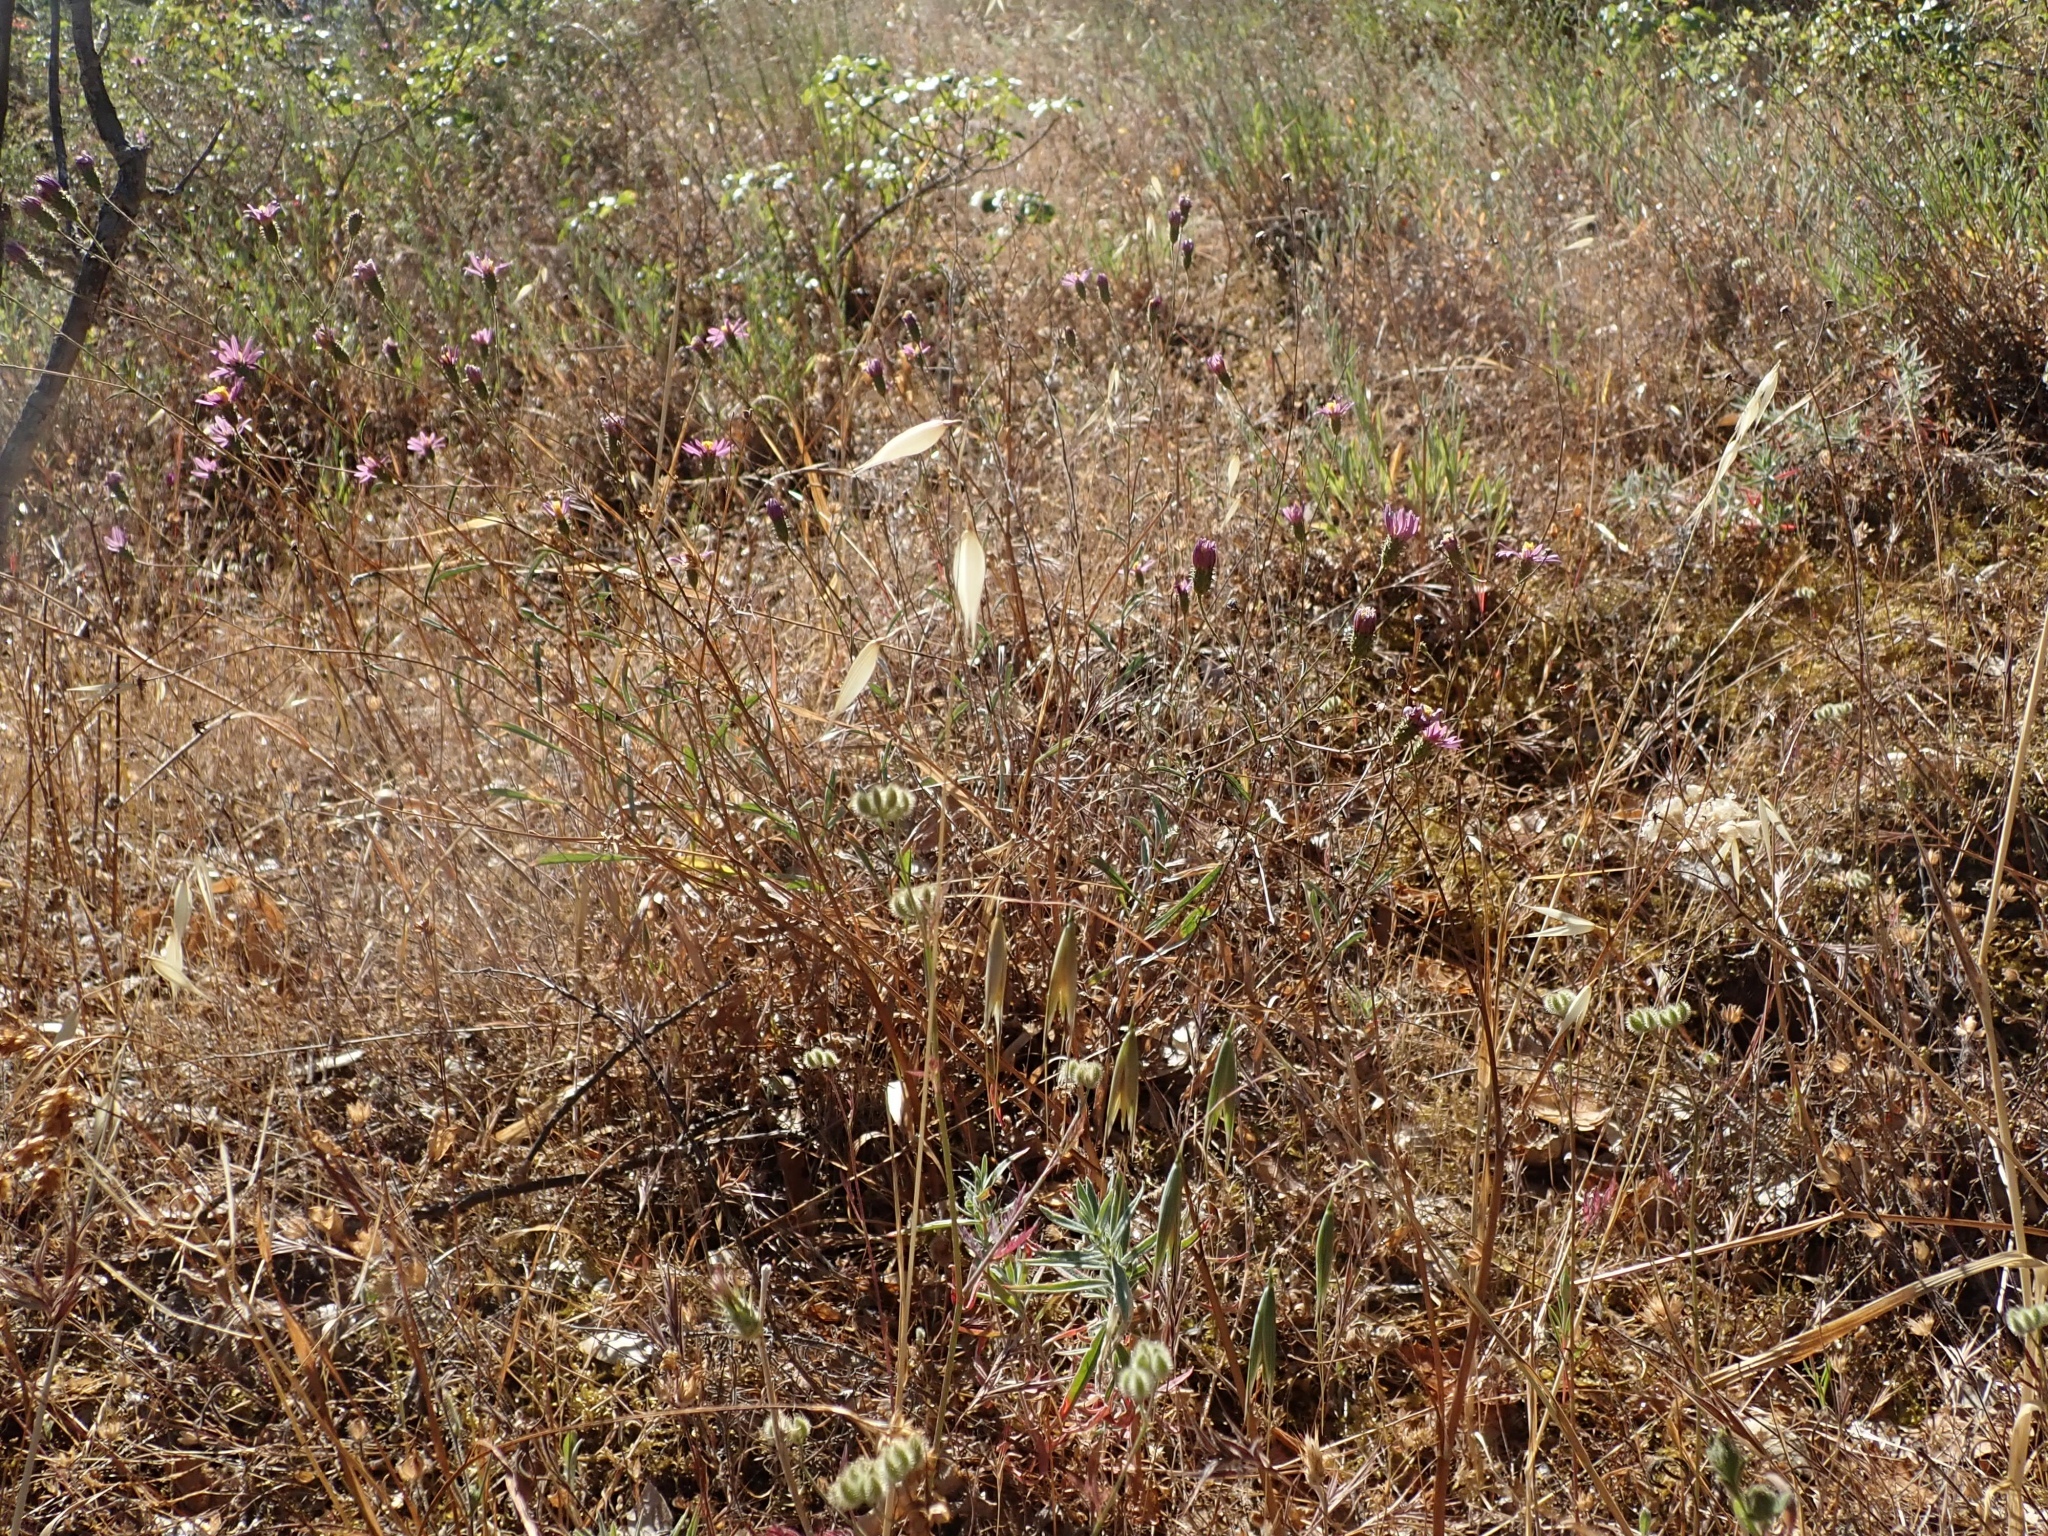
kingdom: Plantae
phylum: Tracheophyta
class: Magnoliopsida
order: Asterales
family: Asteraceae
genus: Corethrogyne
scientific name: Corethrogyne filaginifolia
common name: Sand-aster
